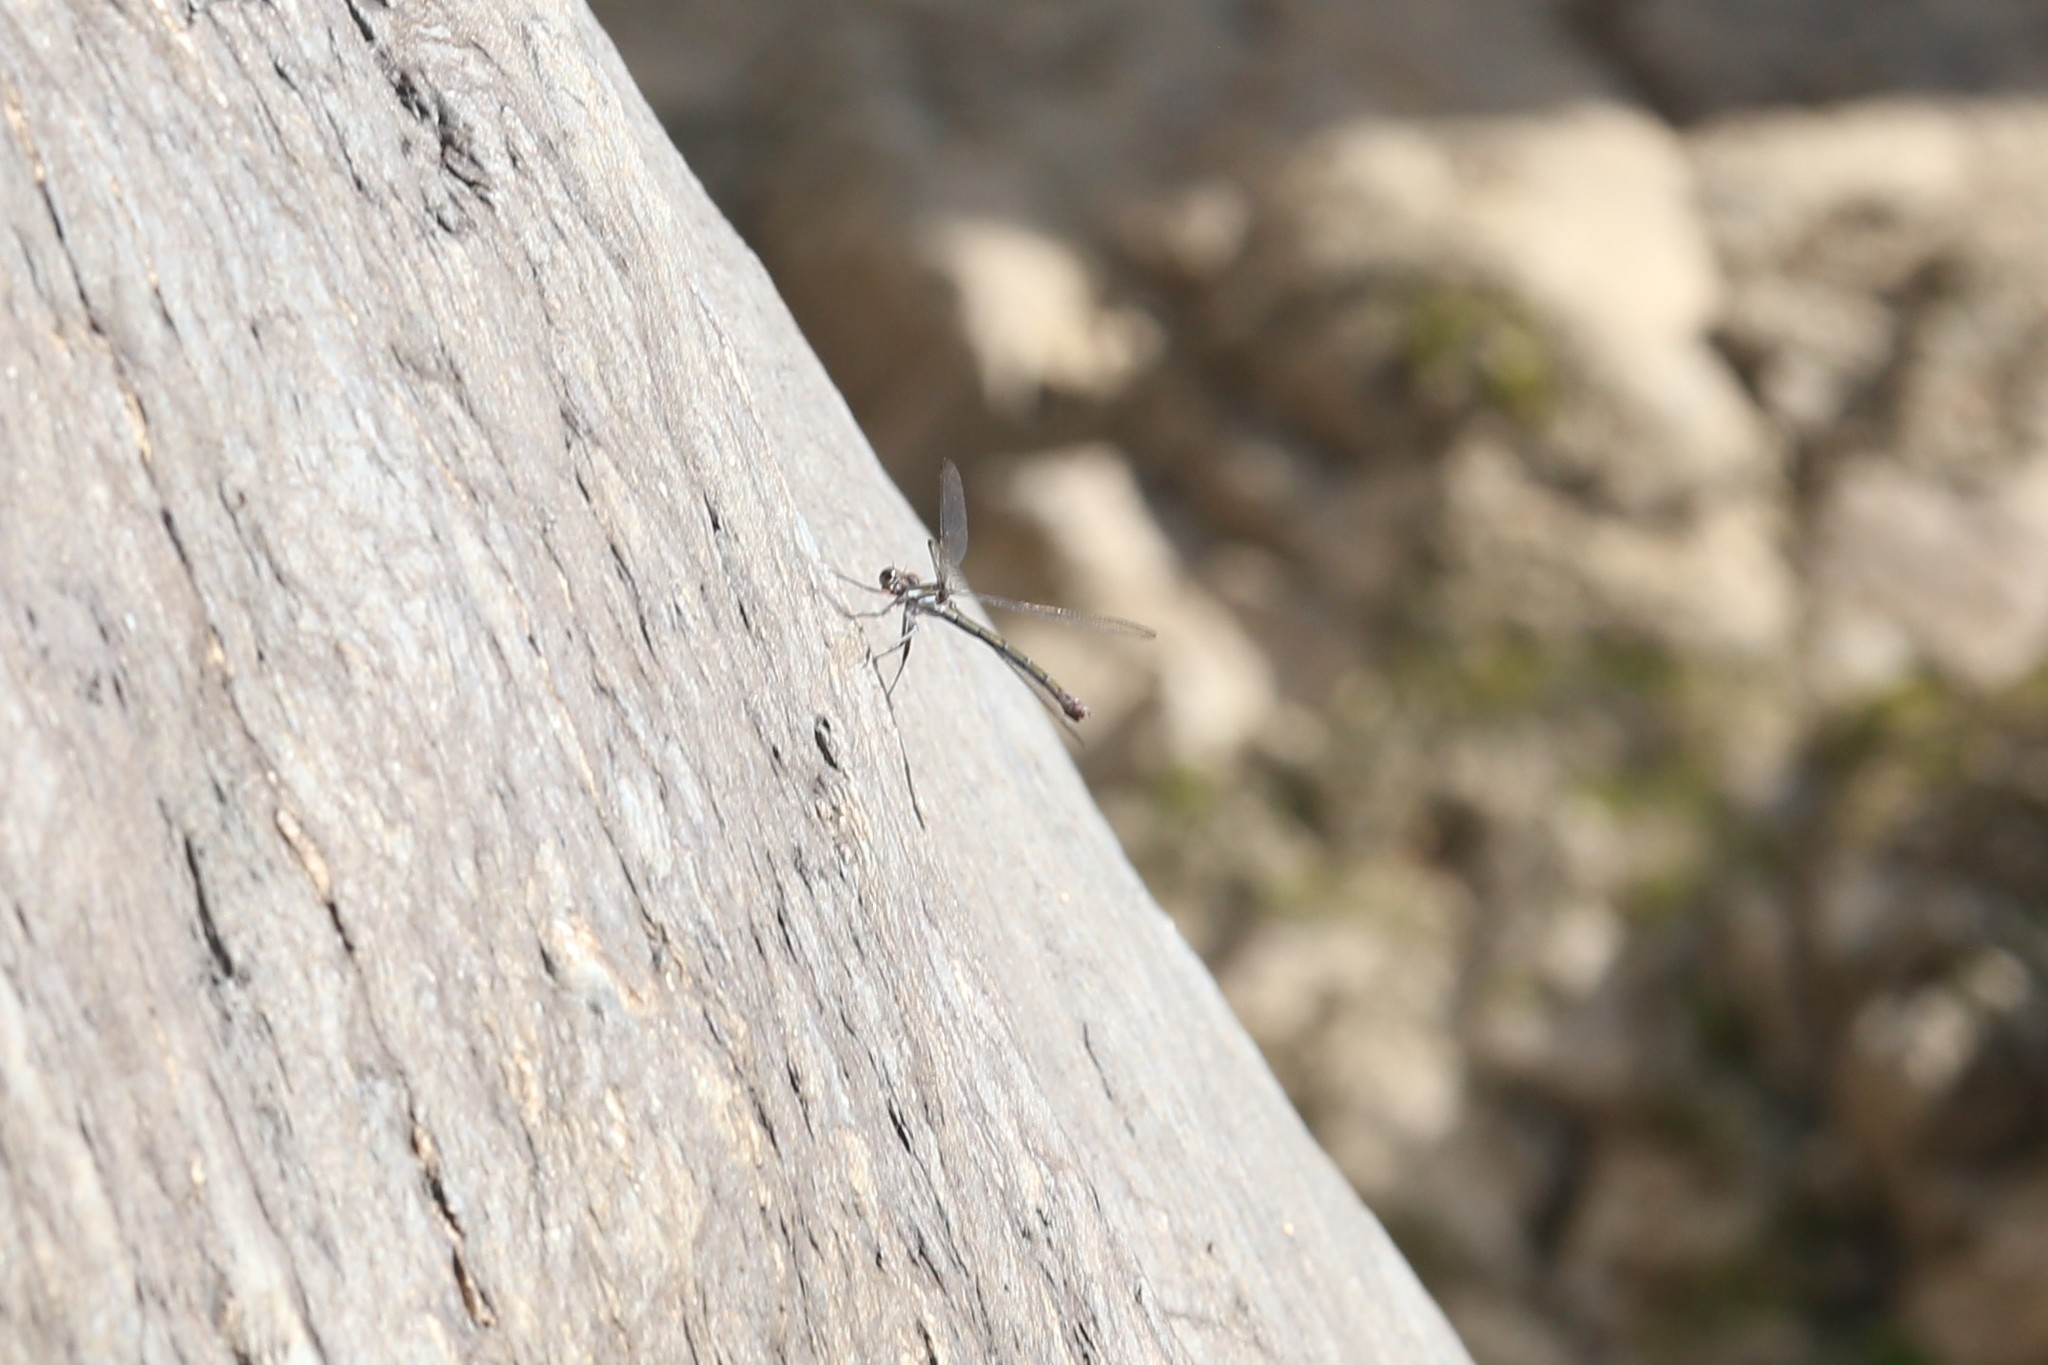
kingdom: Animalia
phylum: Arthropoda
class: Insecta
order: Odonata
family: Lestoideidae
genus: Diphlebia
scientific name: Diphlebia euphoeoides
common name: Tropical rockmaster
